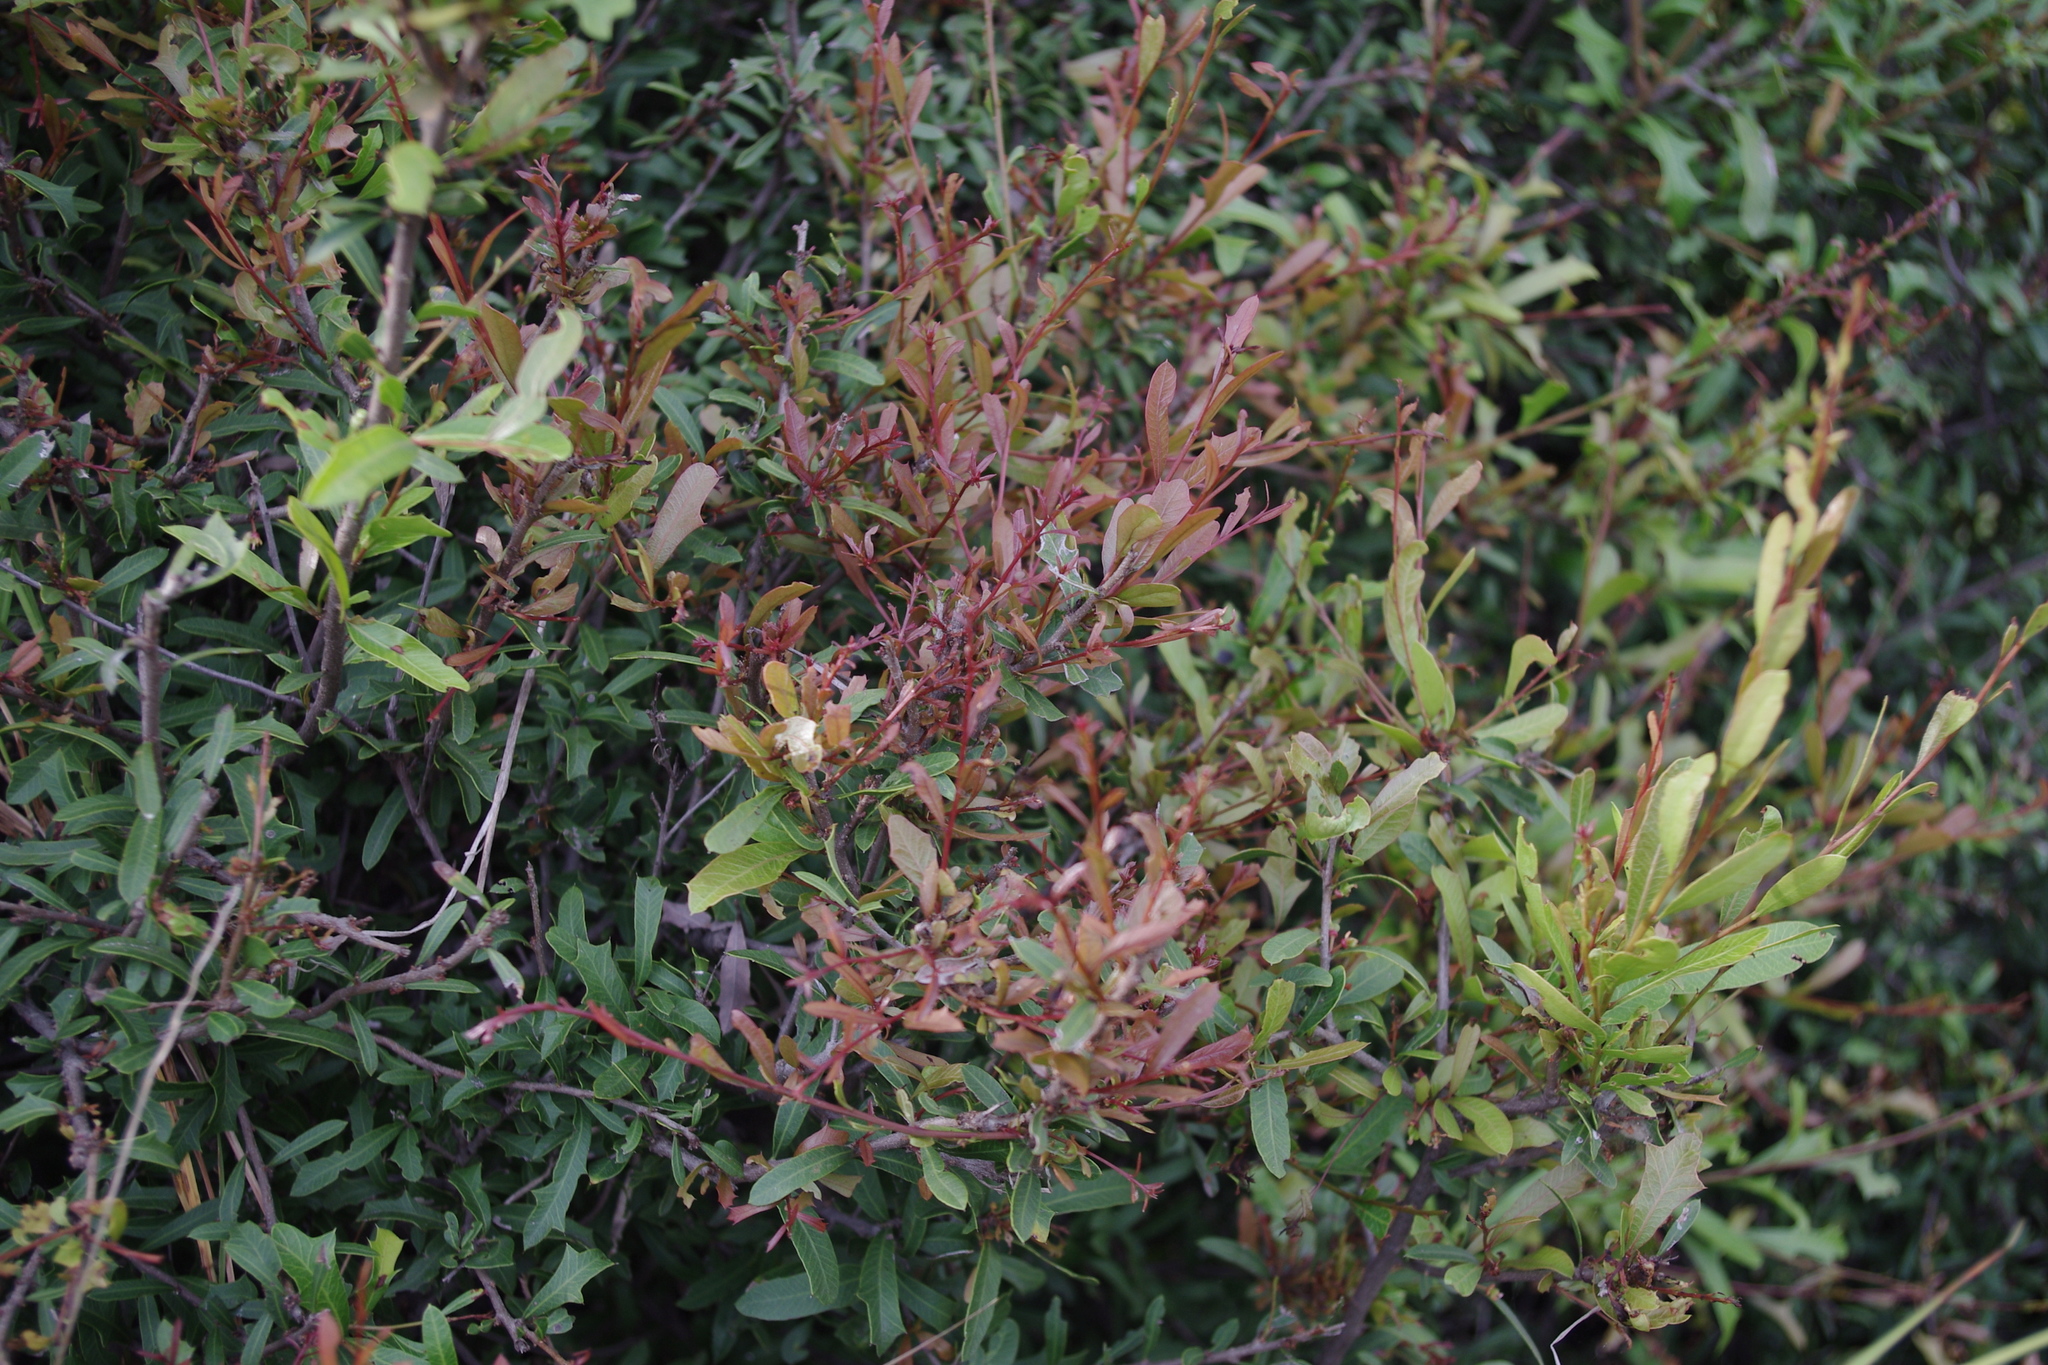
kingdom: Plantae
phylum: Tracheophyta
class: Magnoliopsida
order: Sapindales
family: Sapindaceae
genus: Alectryon
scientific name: Alectryon diversifolius
